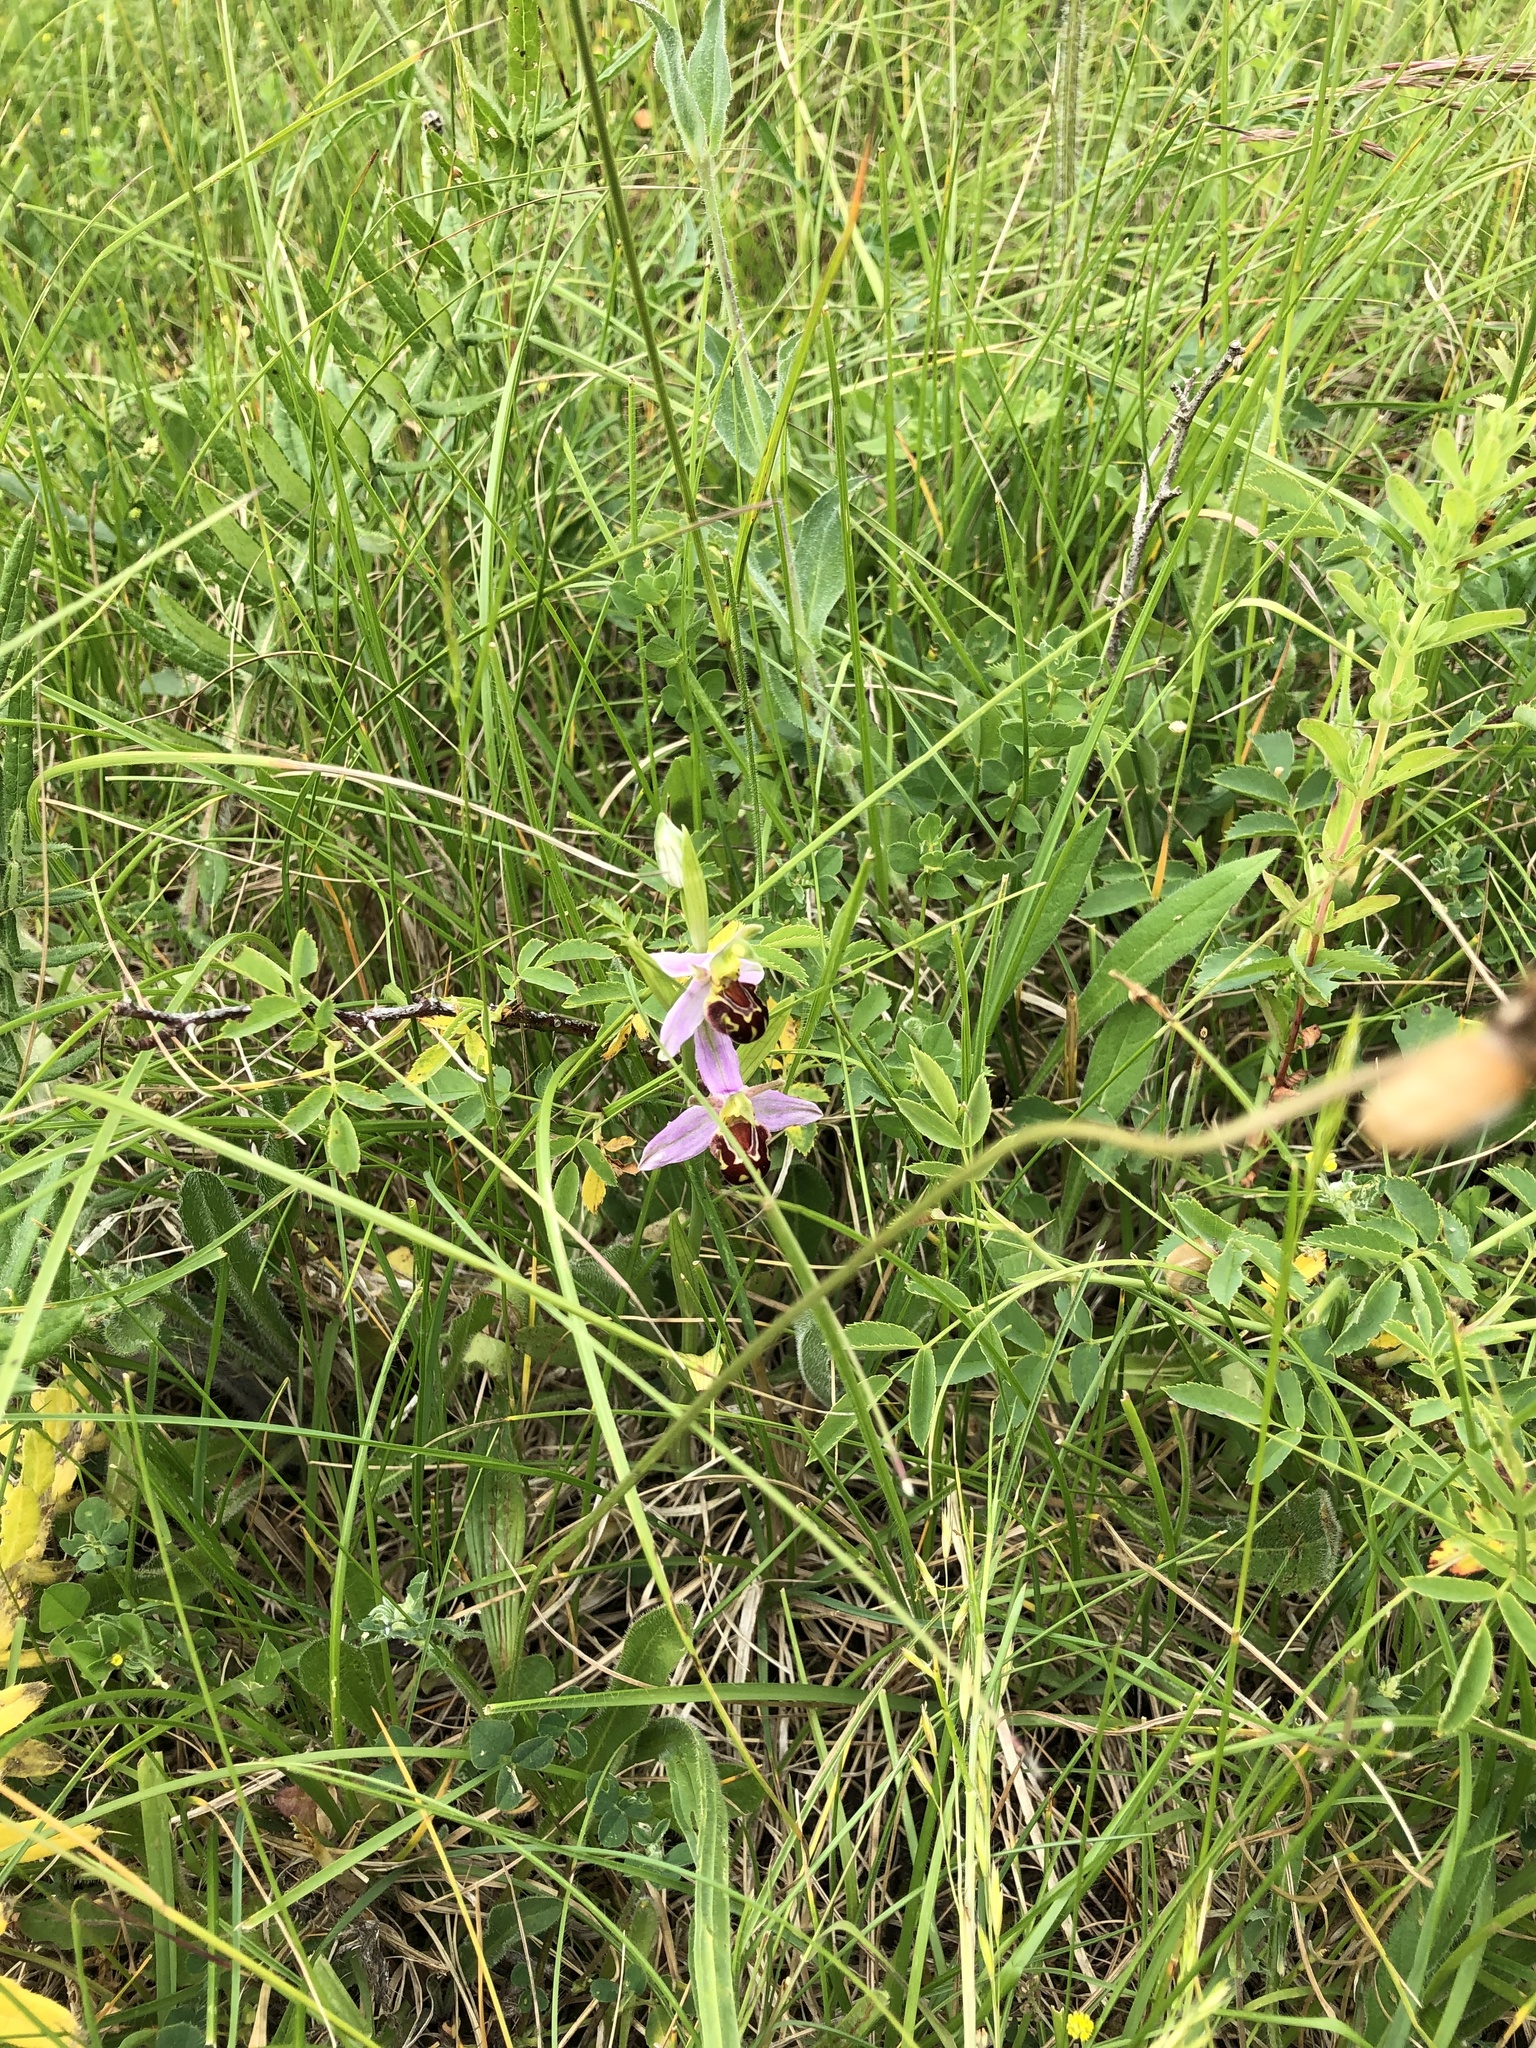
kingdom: Plantae
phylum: Tracheophyta
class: Liliopsida
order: Asparagales
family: Orchidaceae
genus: Ophrys
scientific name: Ophrys apifera
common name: Bee orchid
